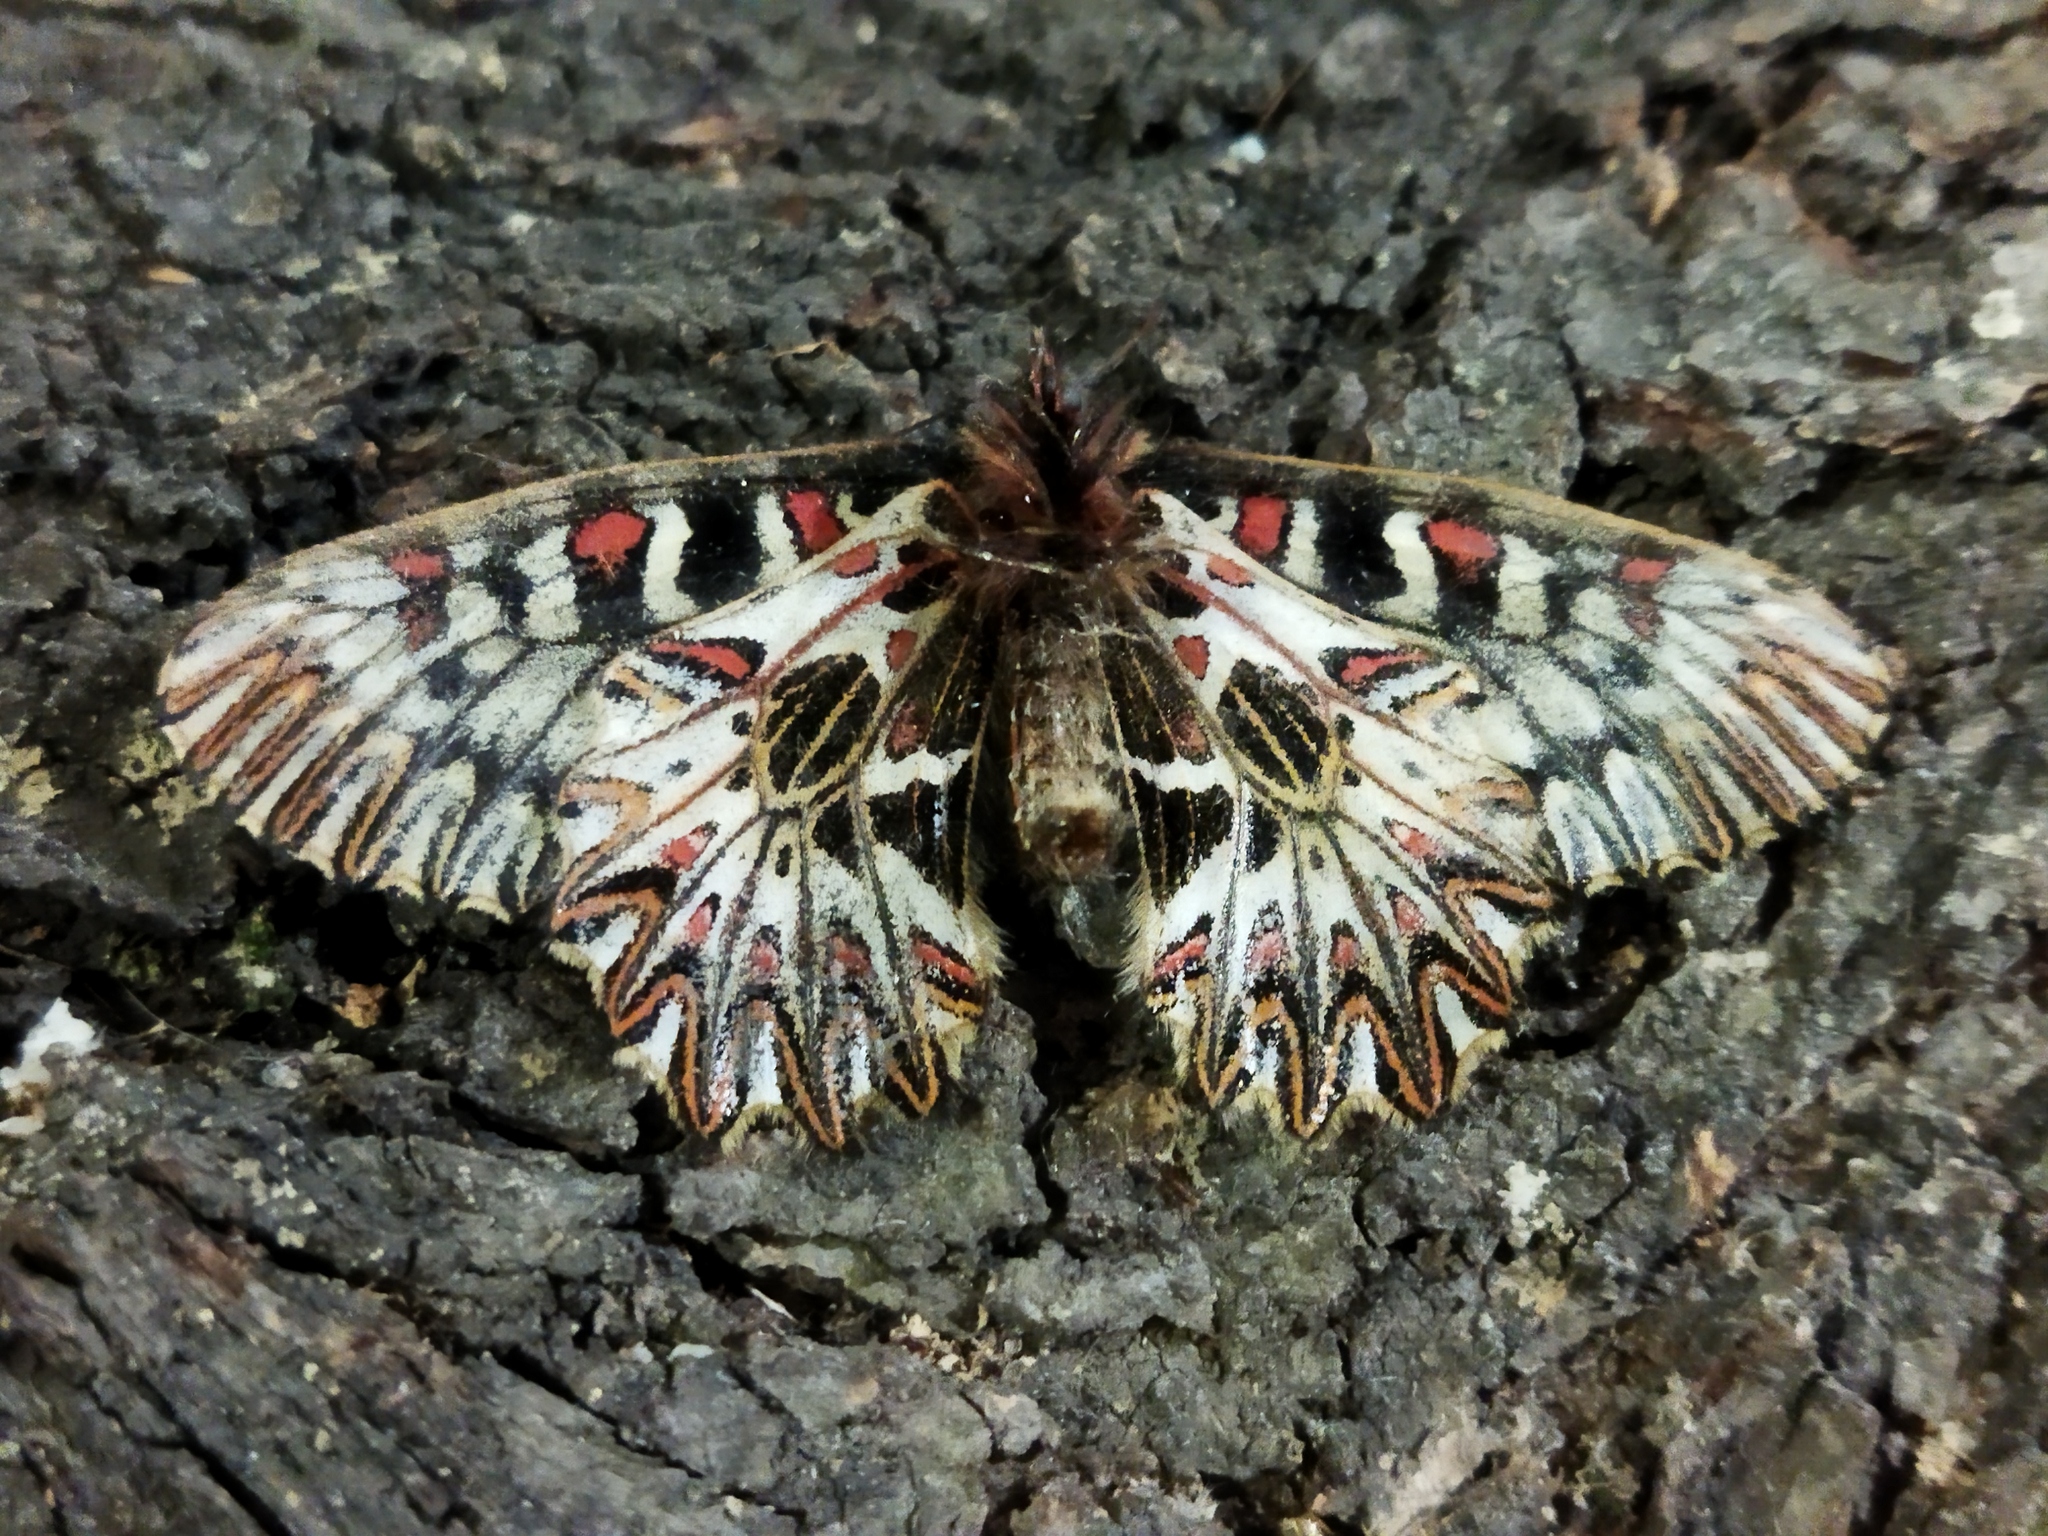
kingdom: Animalia
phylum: Arthropoda
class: Insecta
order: Lepidoptera
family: Papilionidae
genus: Zerynthia
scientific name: Zerynthia polyxena
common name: Southern festoon
